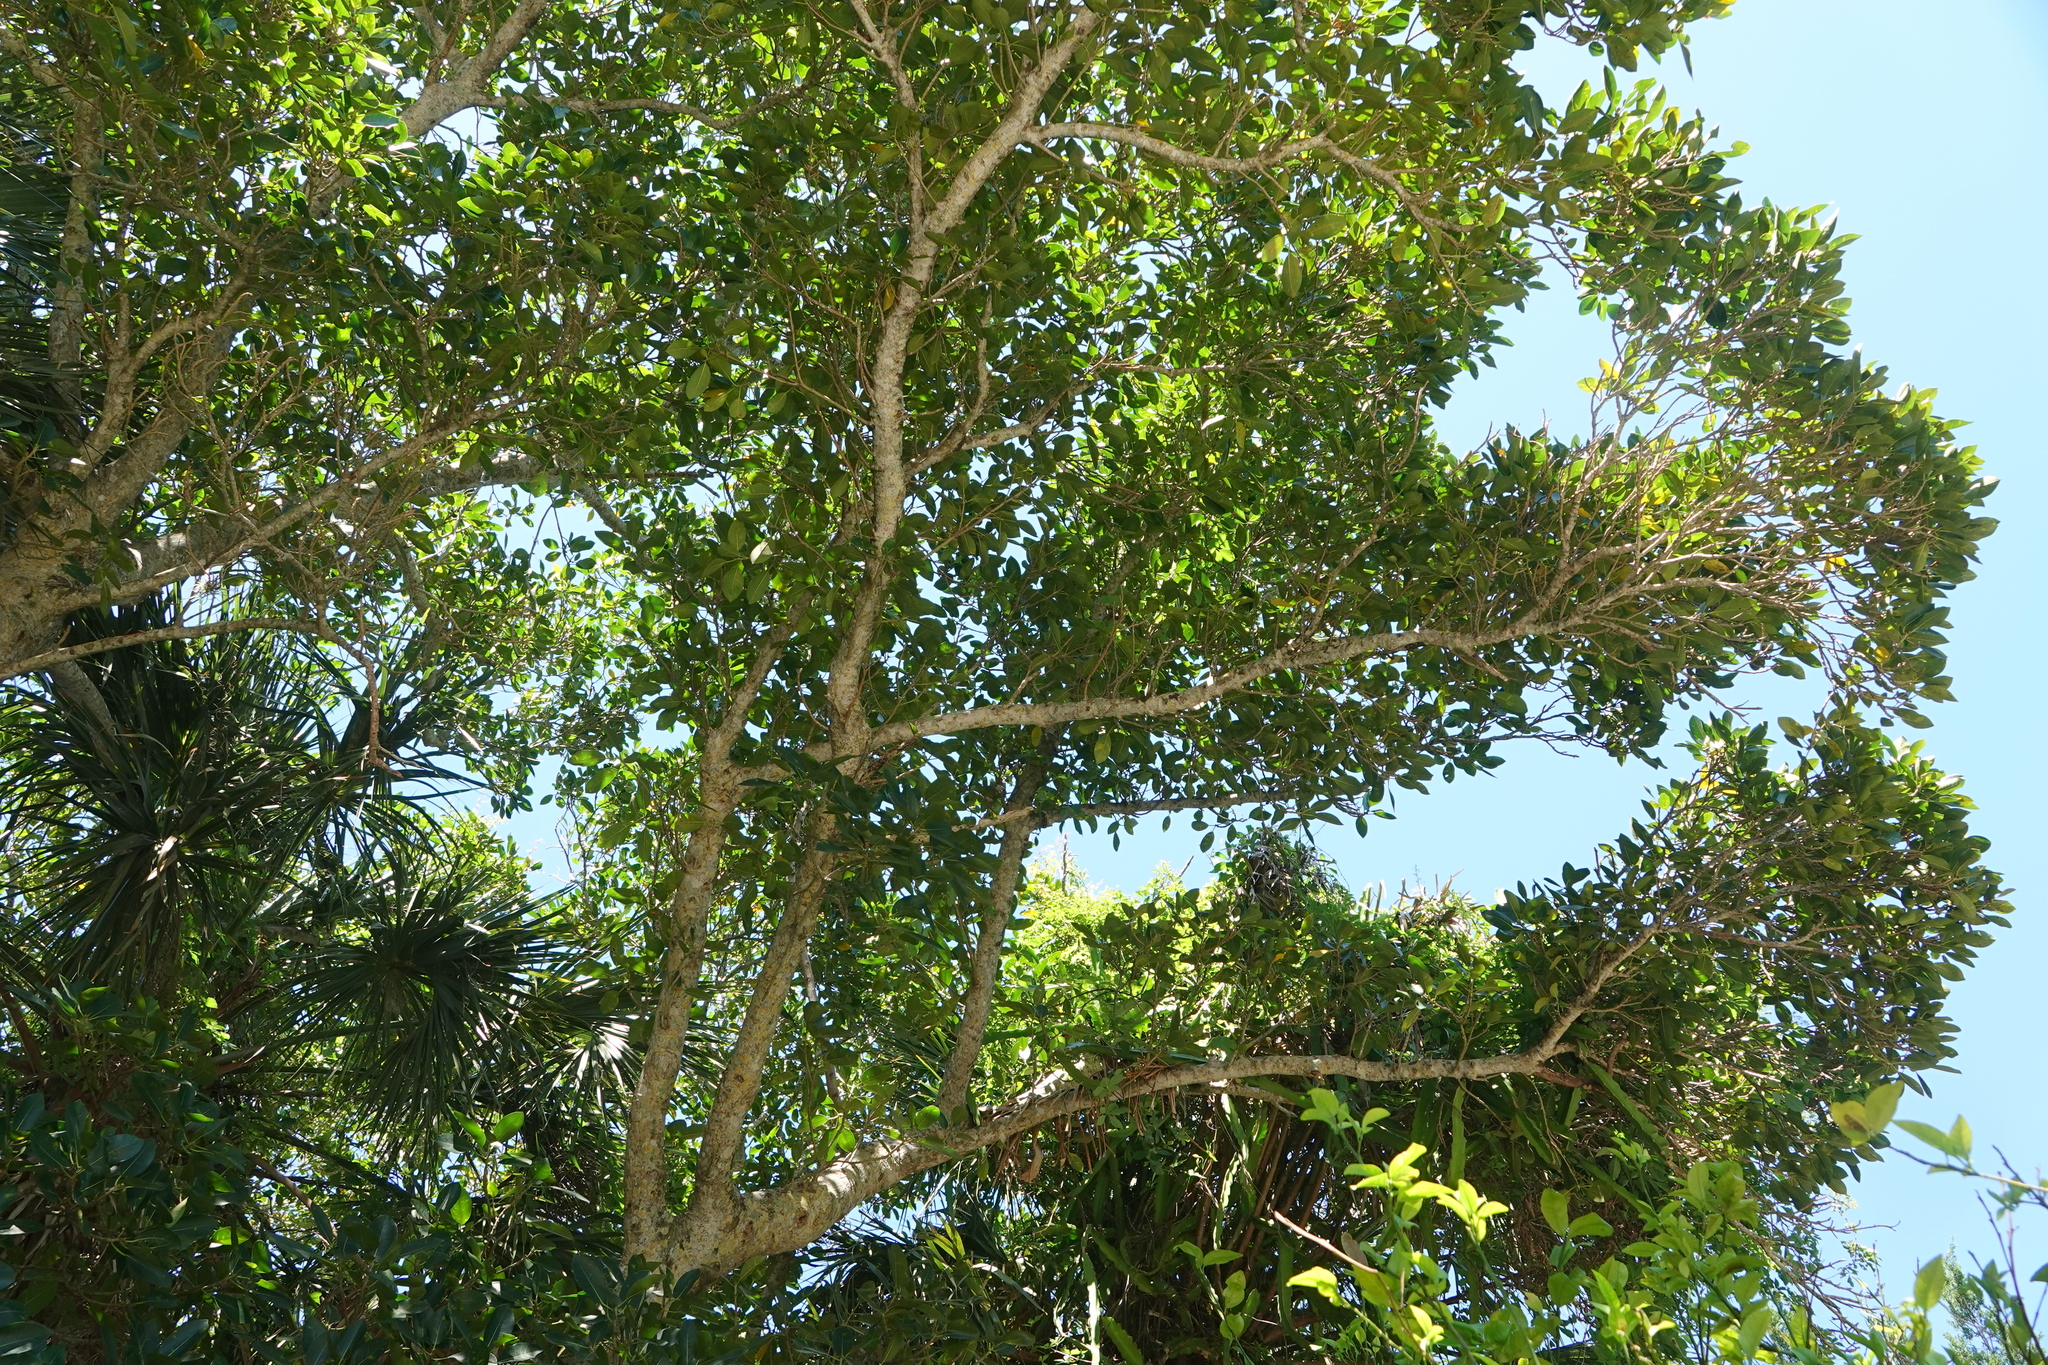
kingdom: Plantae
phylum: Tracheophyta
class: Magnoliopsida
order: Rosales
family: Moraceae
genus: Ficus
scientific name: Ficus aurea
